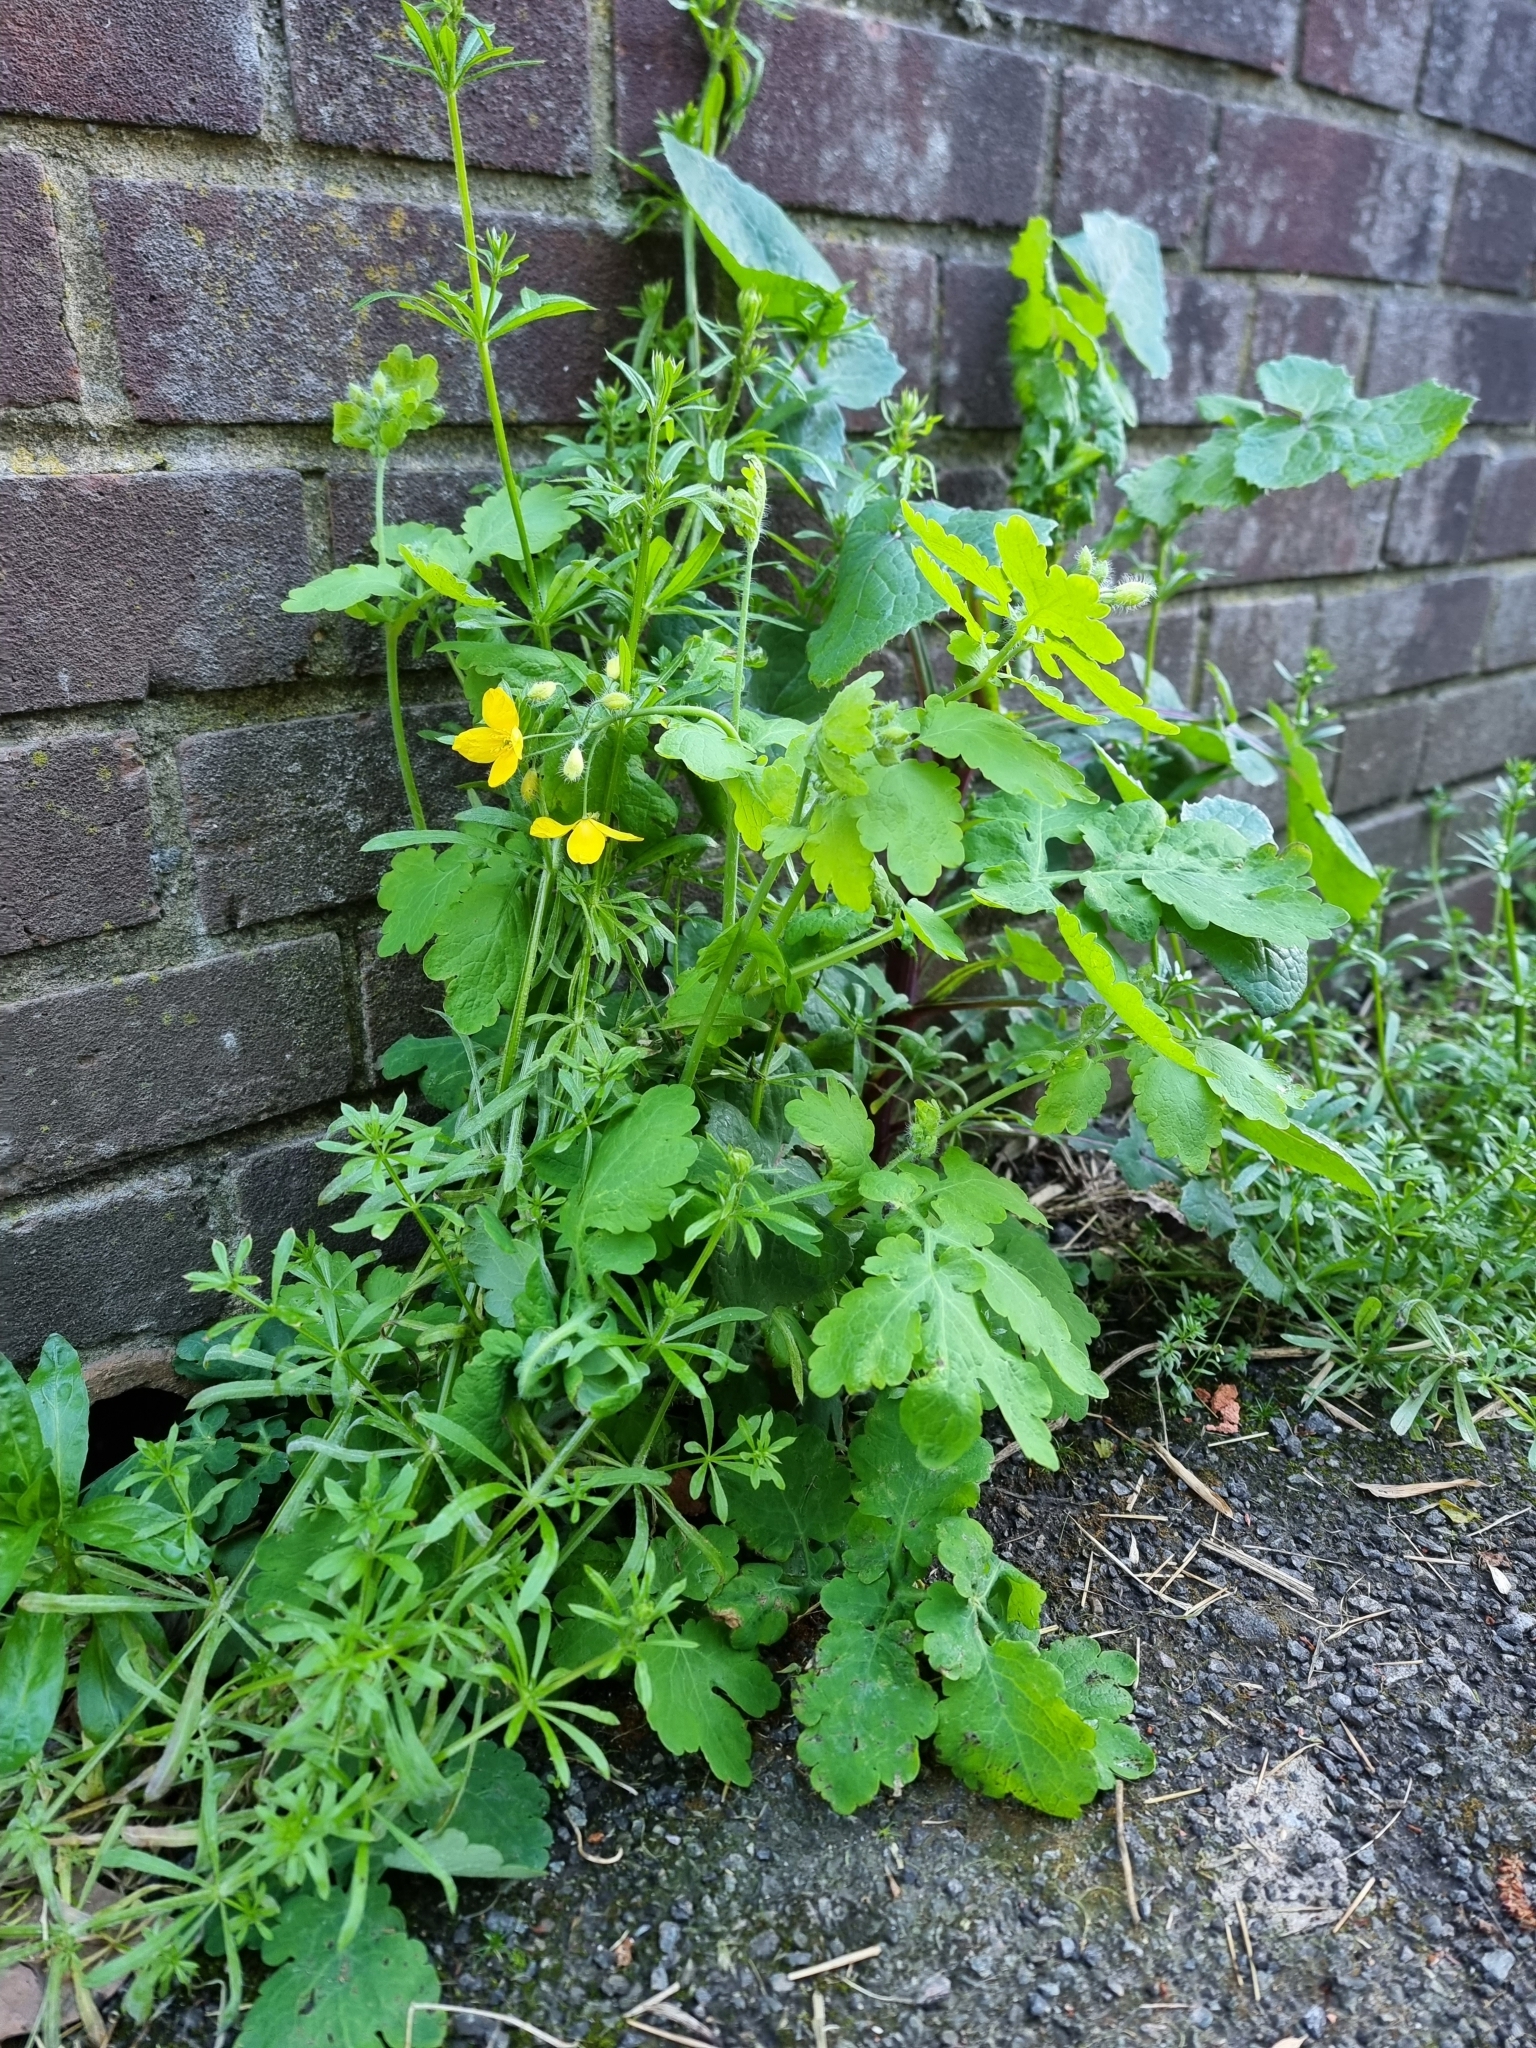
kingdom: Plantae
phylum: Tracheophyta
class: Magnoliopsida
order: Ranunculales
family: Papaveraceae
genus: Chelidonium
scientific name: Chelidonium majus
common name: Greater celandine
